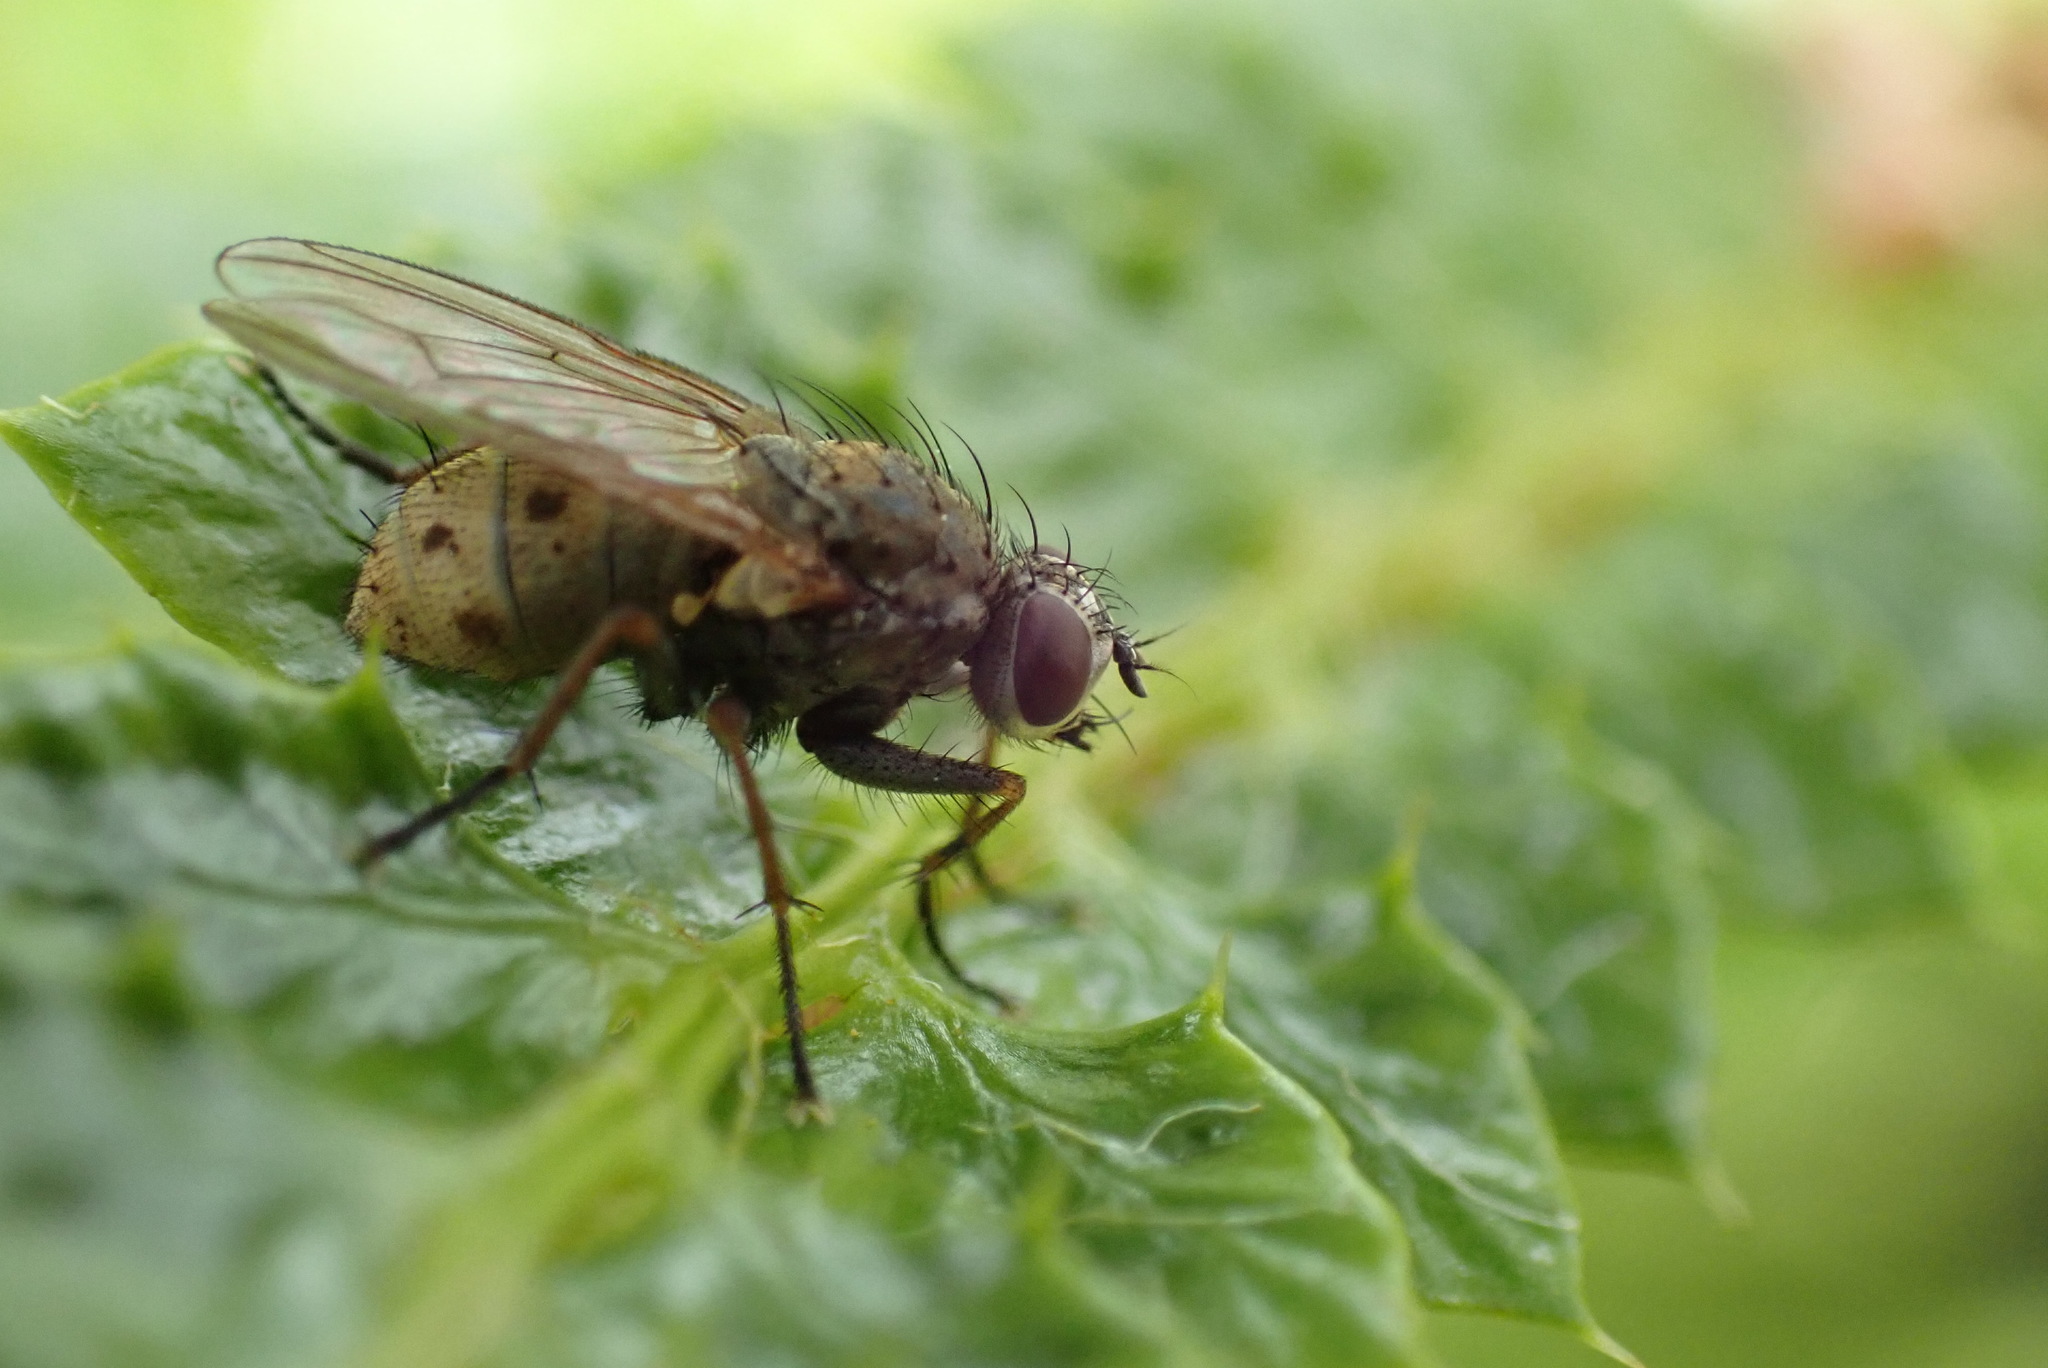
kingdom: Animalia
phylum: Arthropoda
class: Insecta
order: Diptera
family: Muscidae
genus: Coenosia
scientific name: Coenosia tigrina
